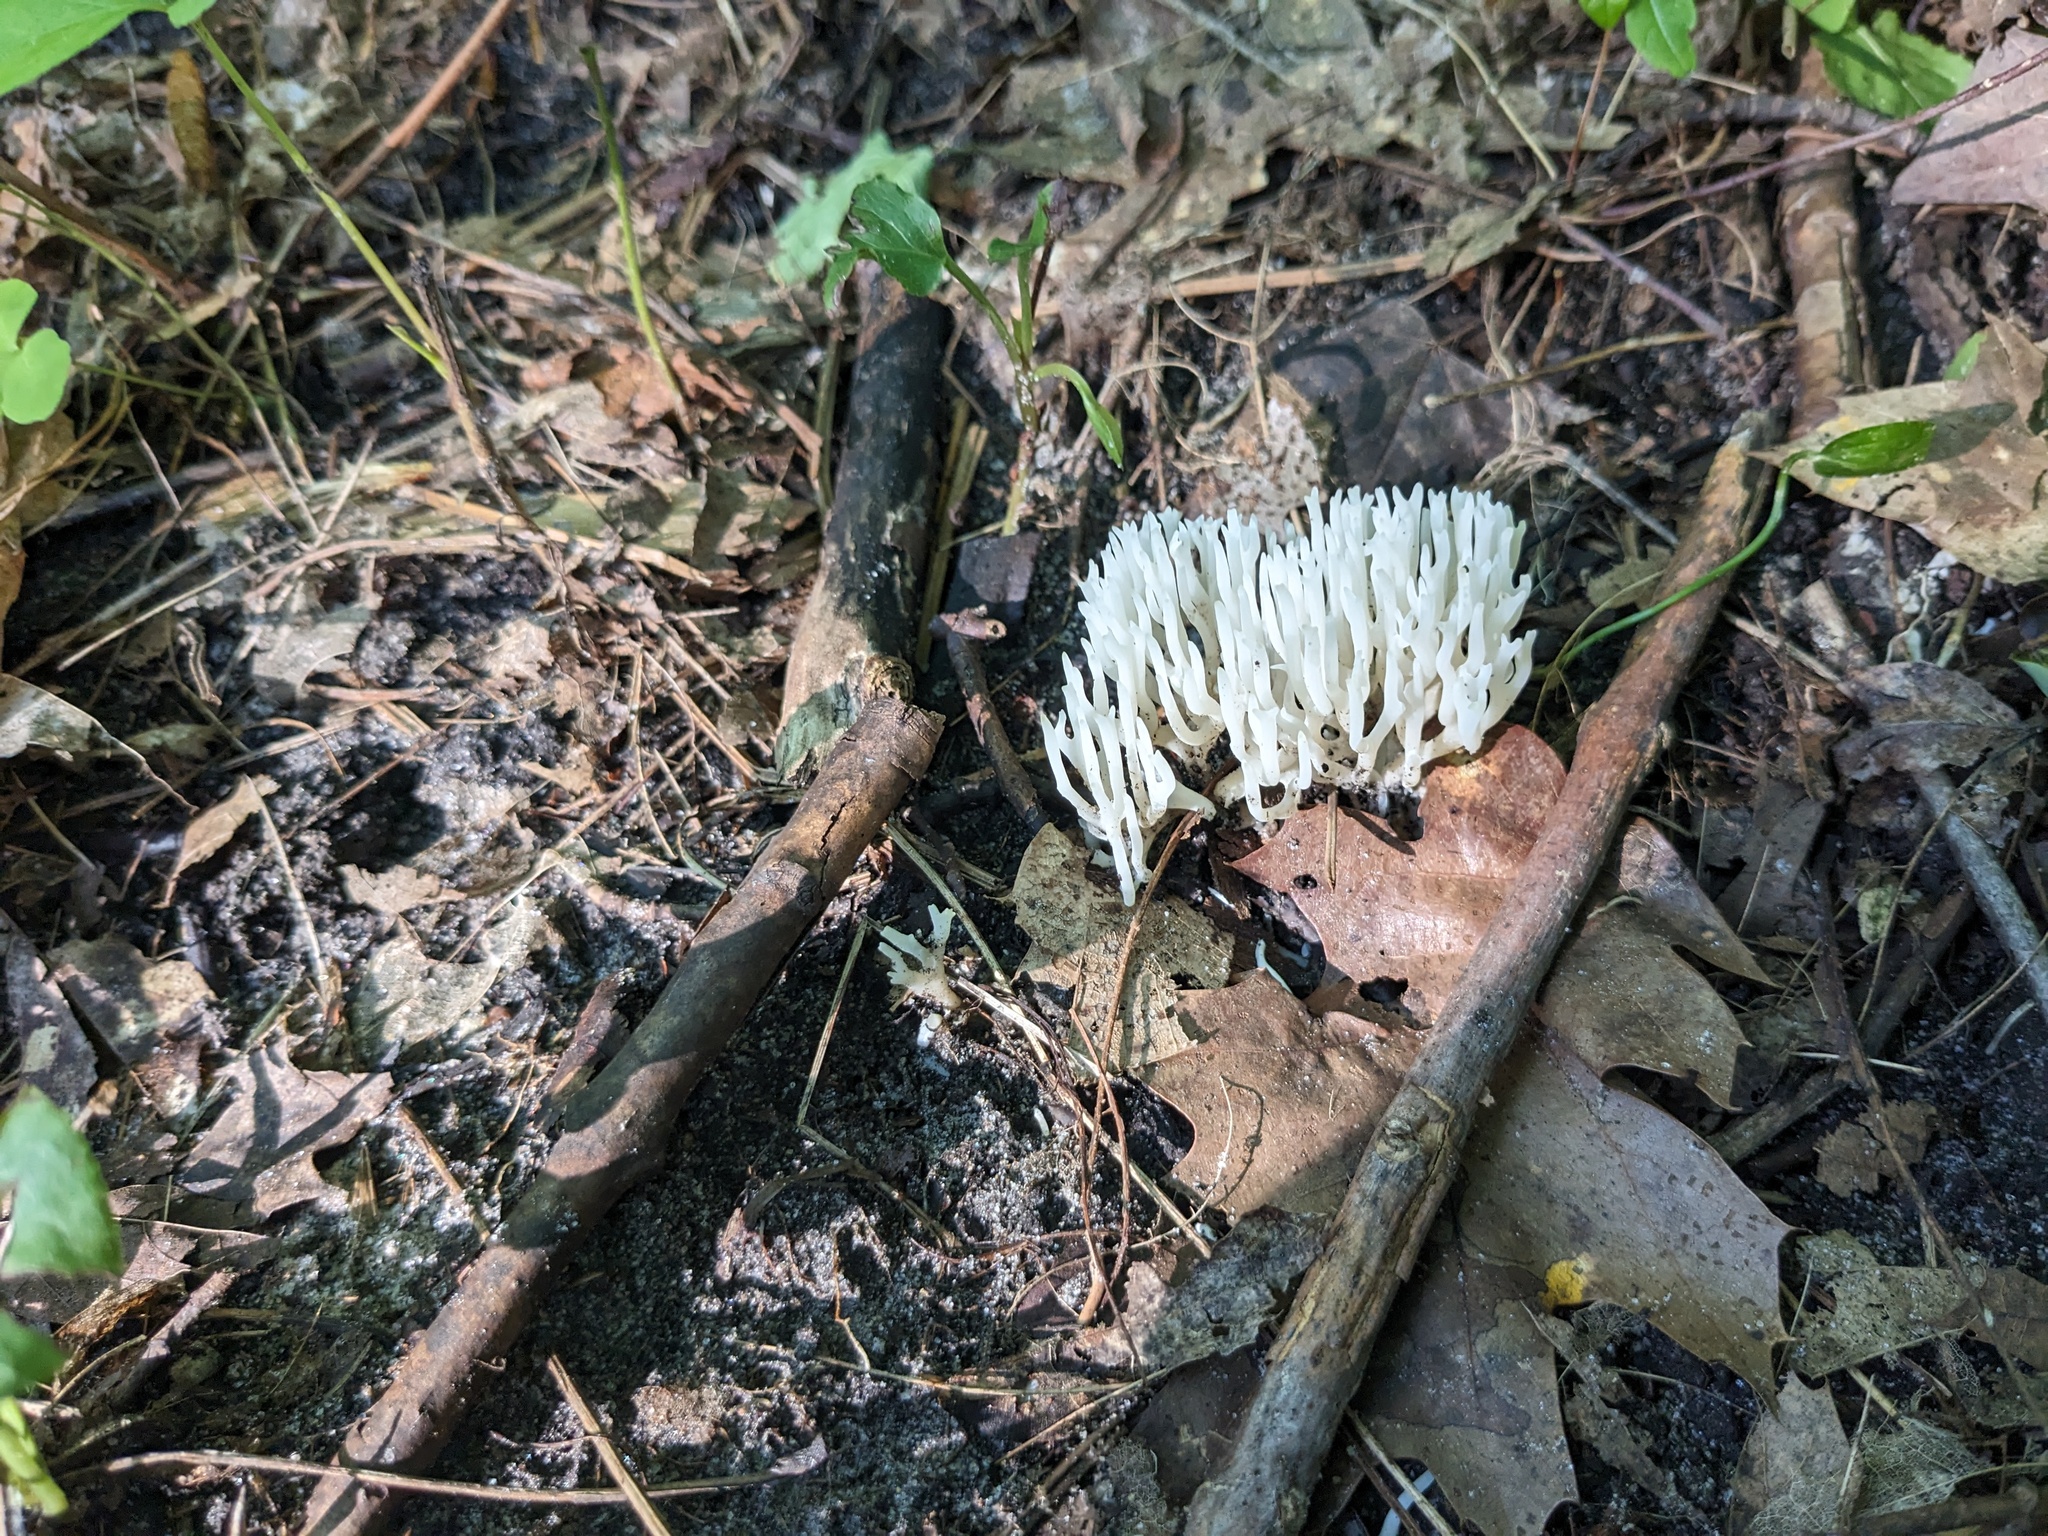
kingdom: Fungi
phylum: Basidiomycota
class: Agaricomycetes
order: Agaricales
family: Clavariaceae
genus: Ramariopsis
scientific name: Ramariopsis kunzei
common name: Ivory coral
